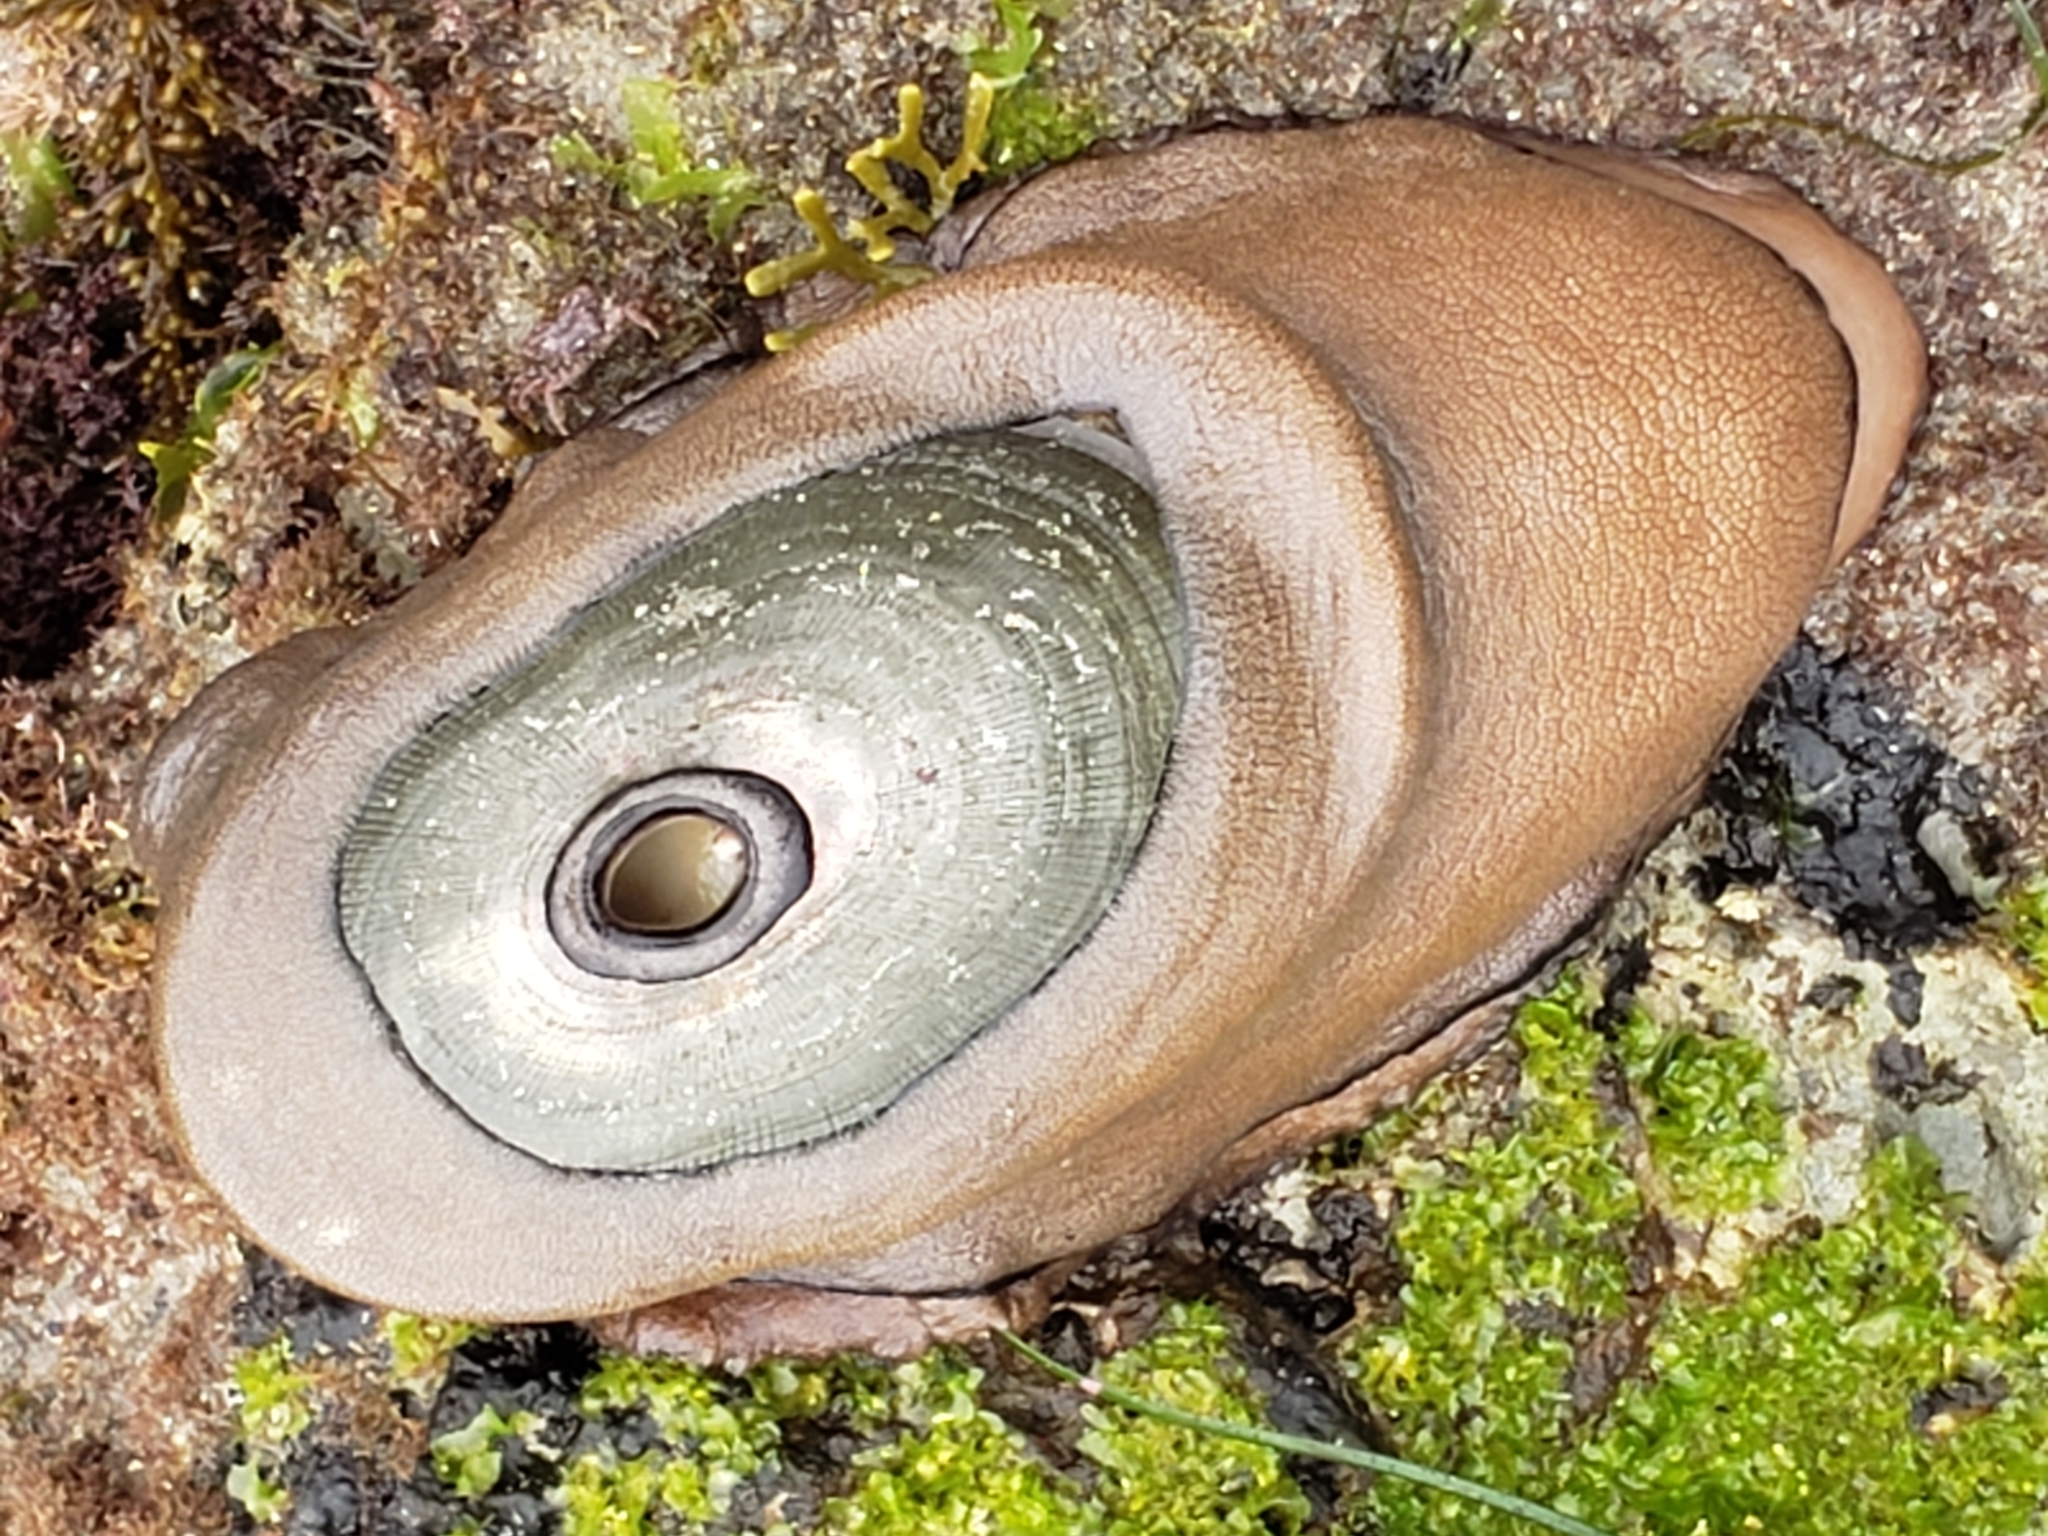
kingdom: Animalia
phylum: Mollusca
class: Gastropoda
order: Lepetellida
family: Fissurellidae
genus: Megathura
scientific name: Megathura crenulata
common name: Giant keyhole limpet
